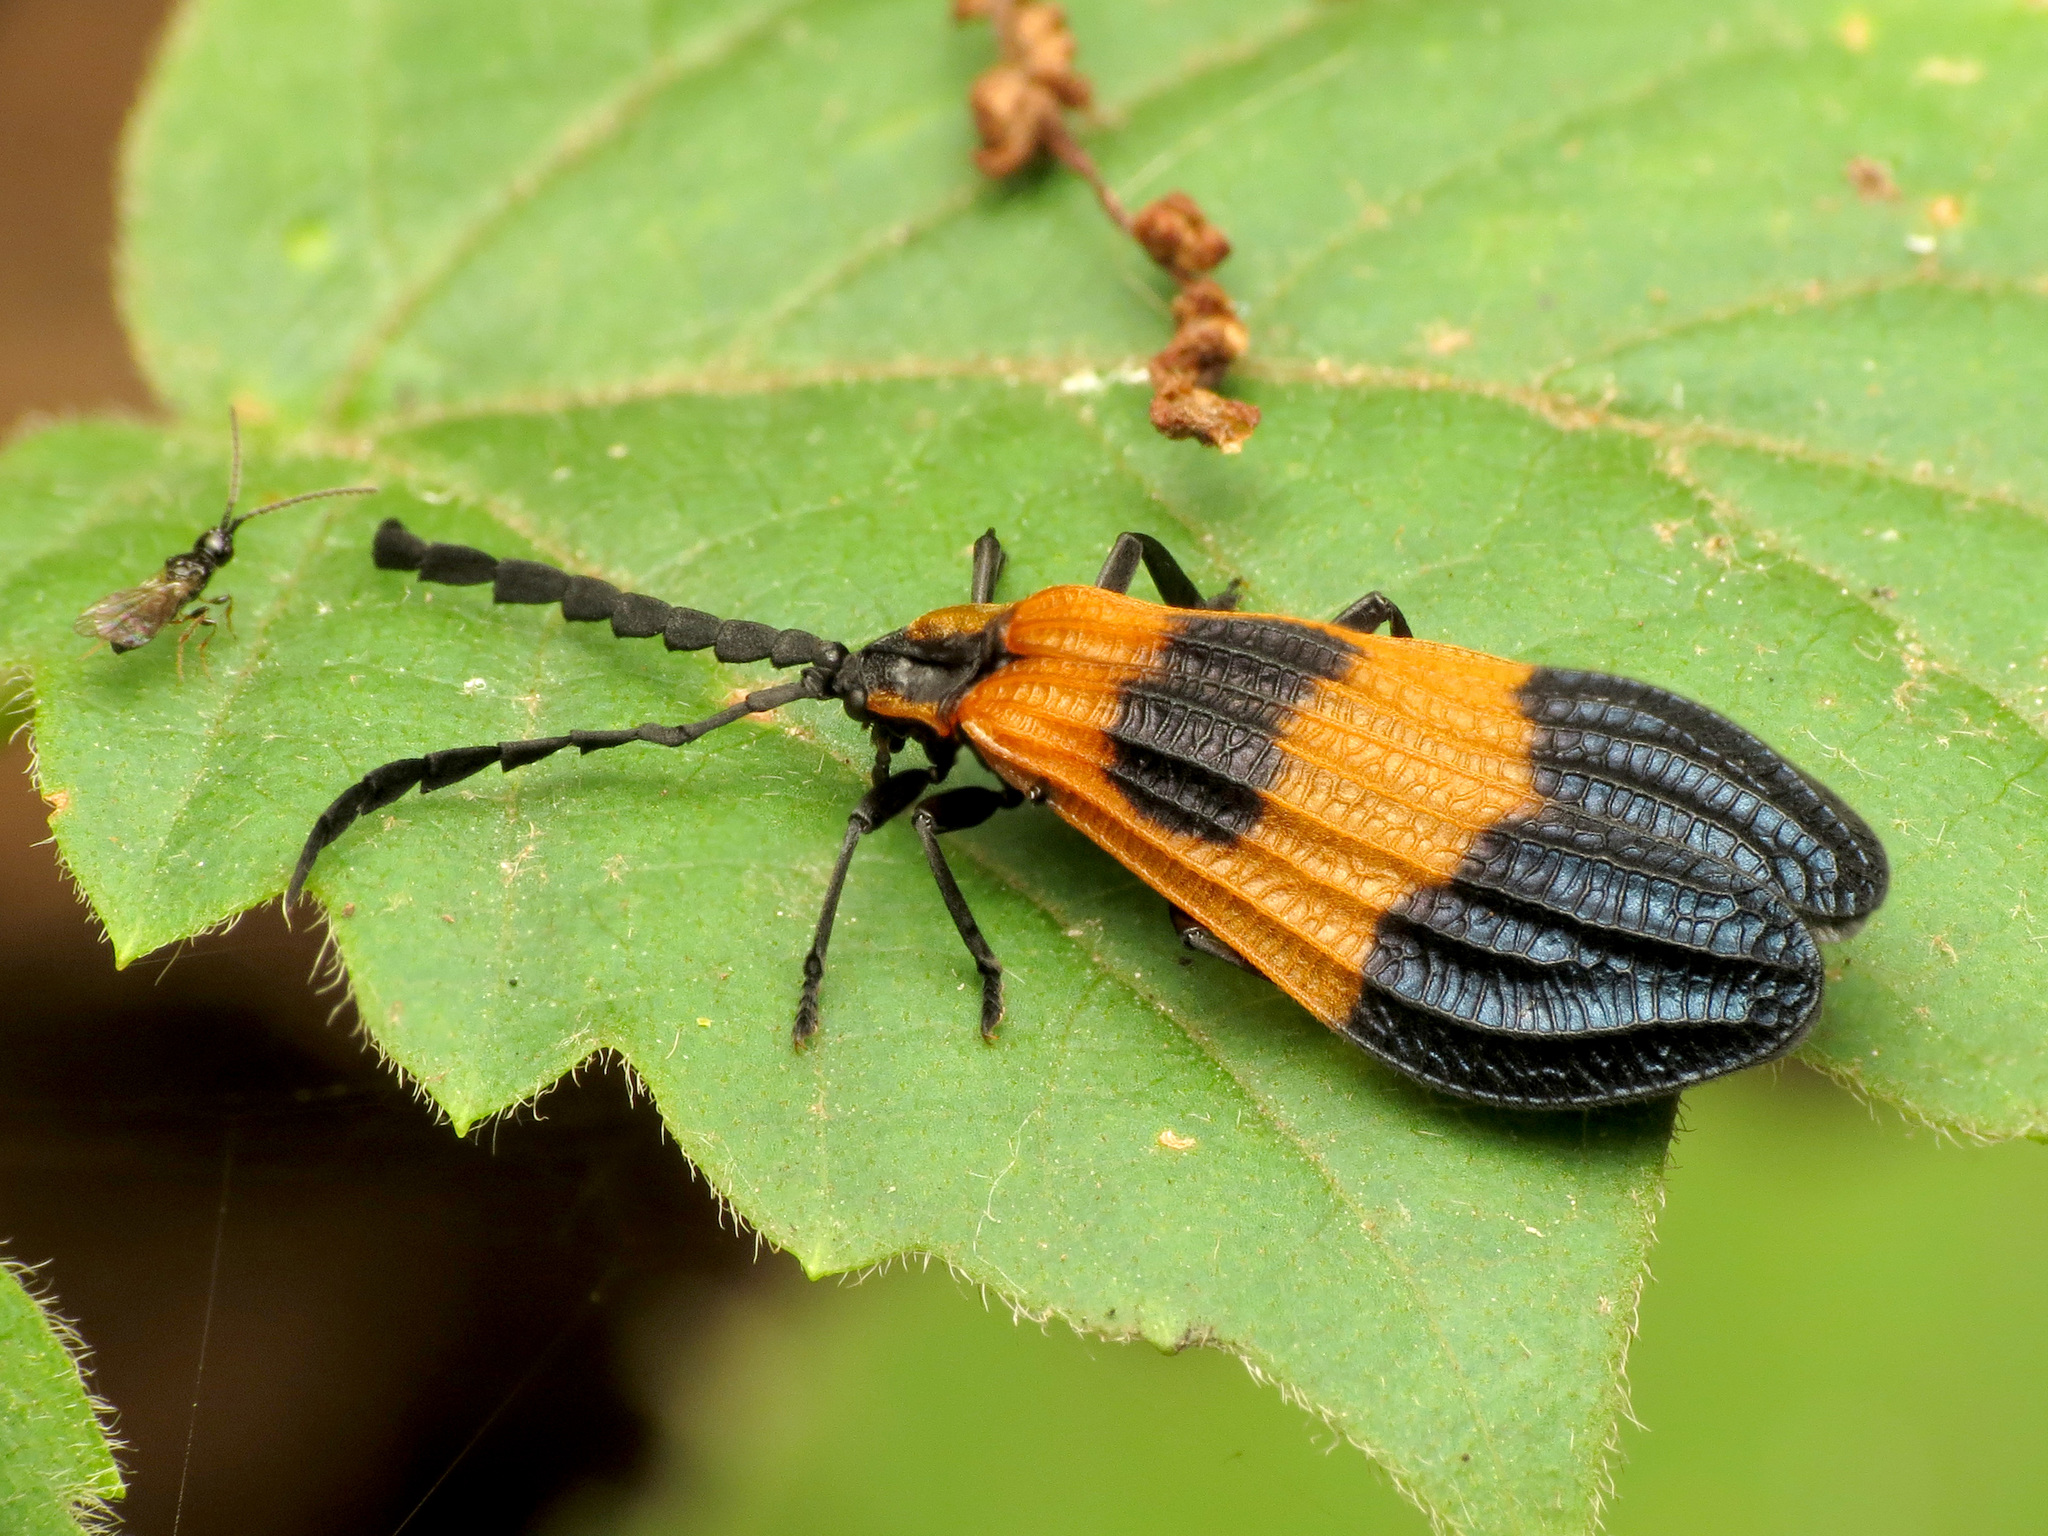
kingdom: Animalia
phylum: Arthropoda
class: Insecta
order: Coleoptera
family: Lycidae
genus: Calopteron
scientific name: Calopteron terminale
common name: End band net-winged beetle
